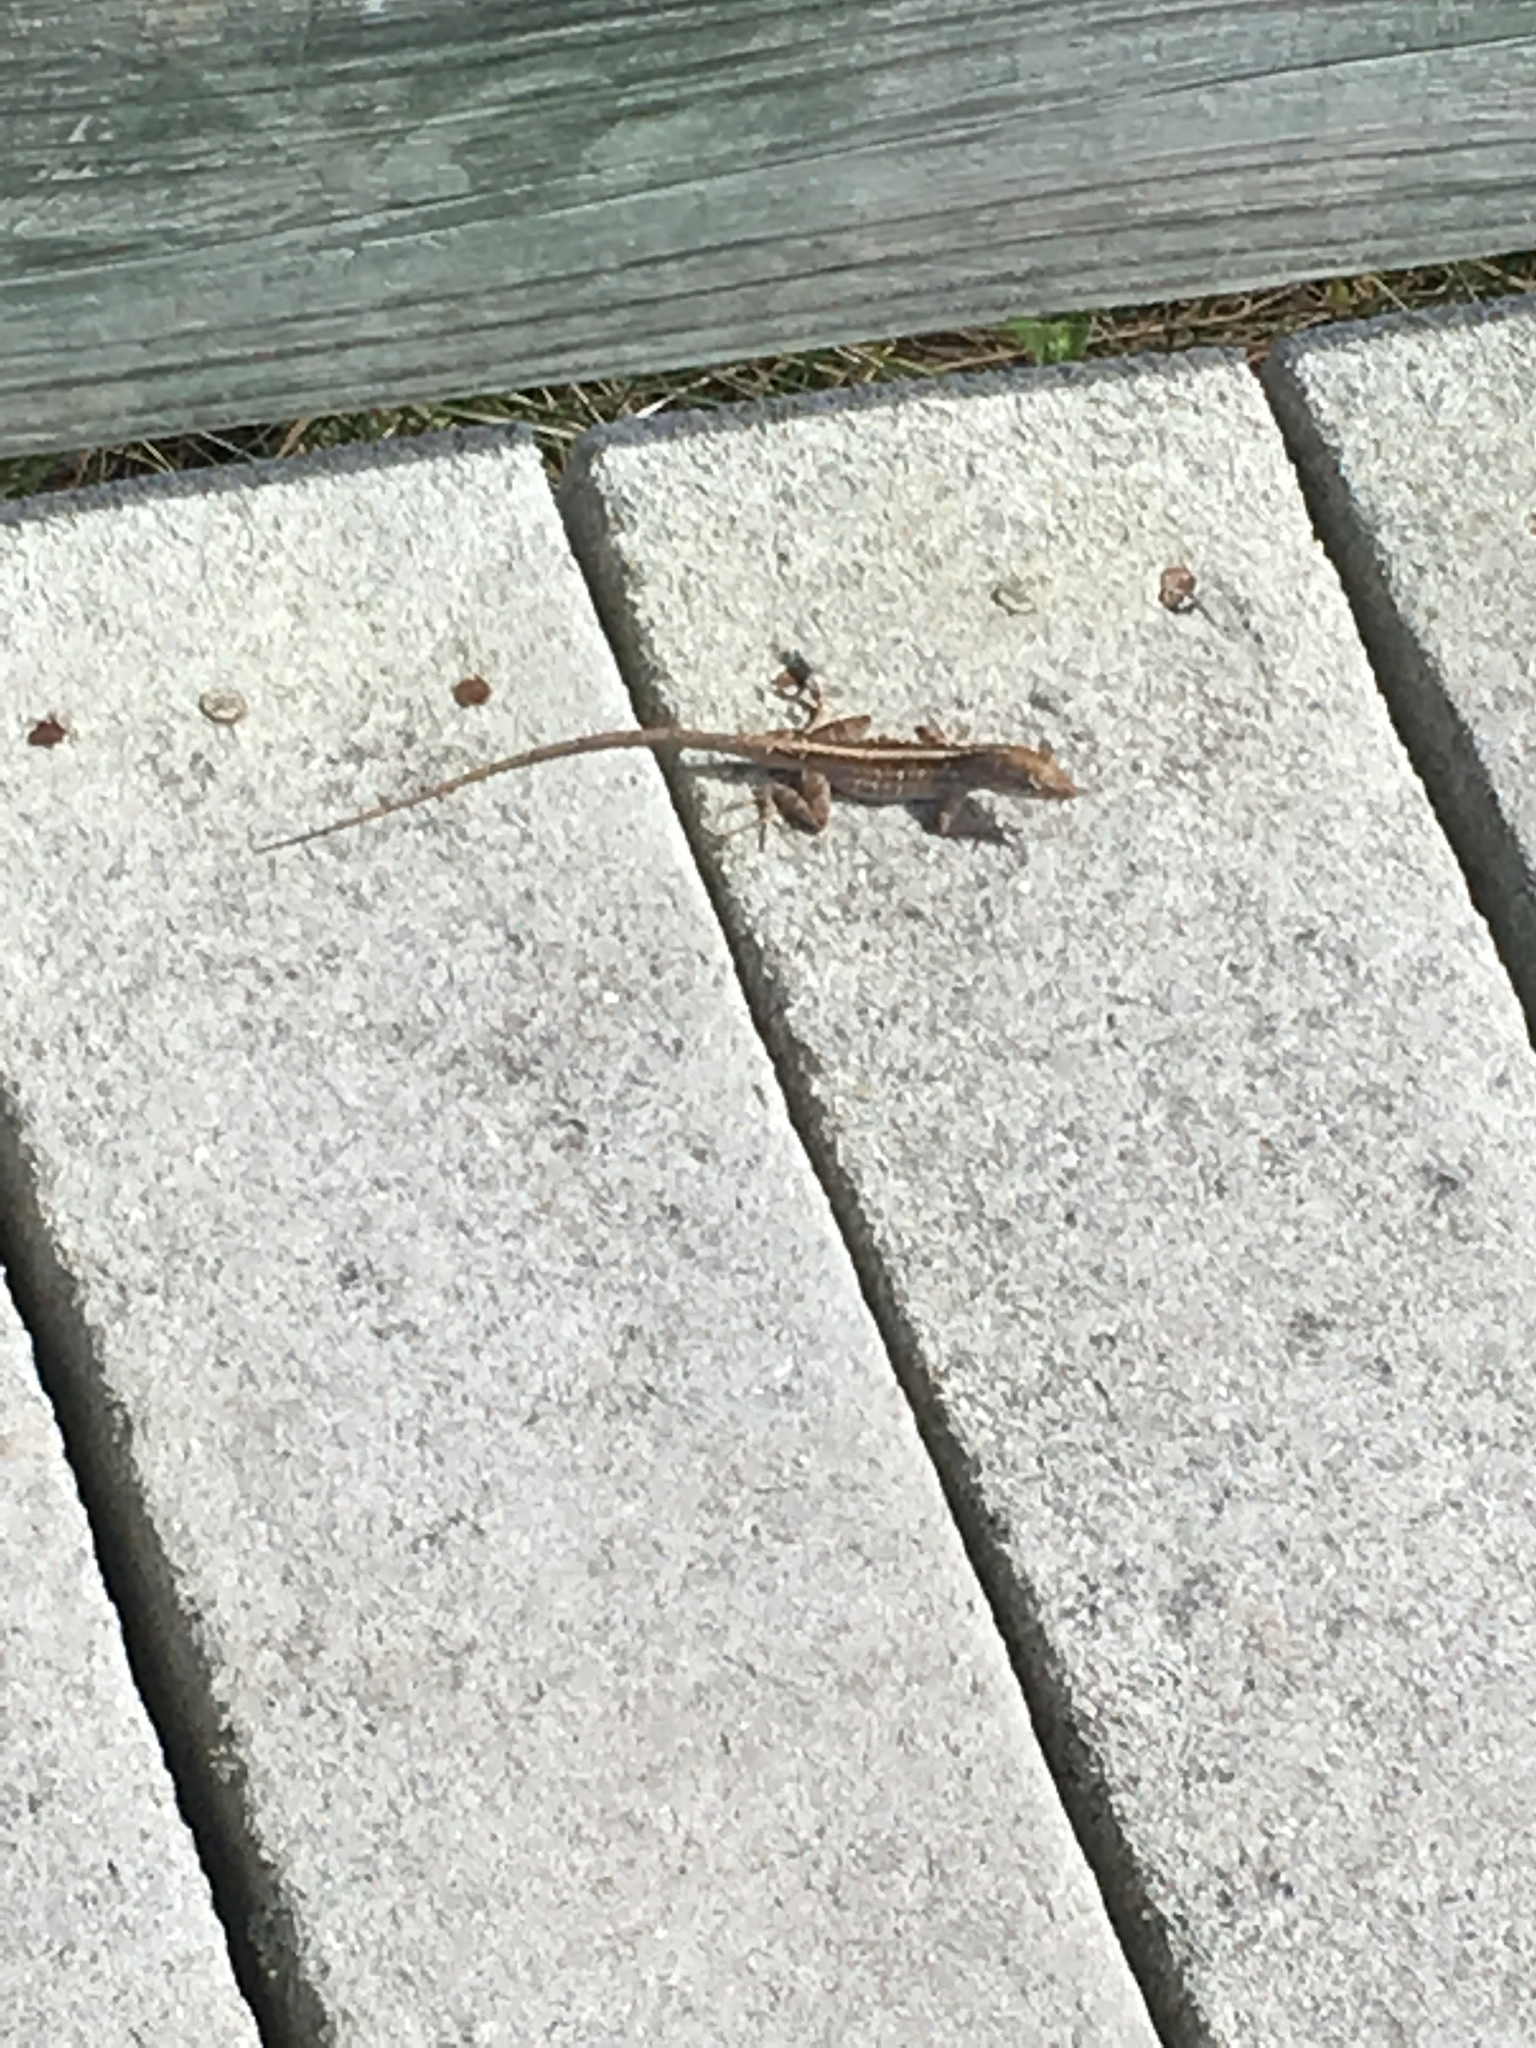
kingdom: Animalia
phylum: Chordata
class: Squamata
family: Dactyloidae
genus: Anolis
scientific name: Anolis sagrei
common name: Brown anole
